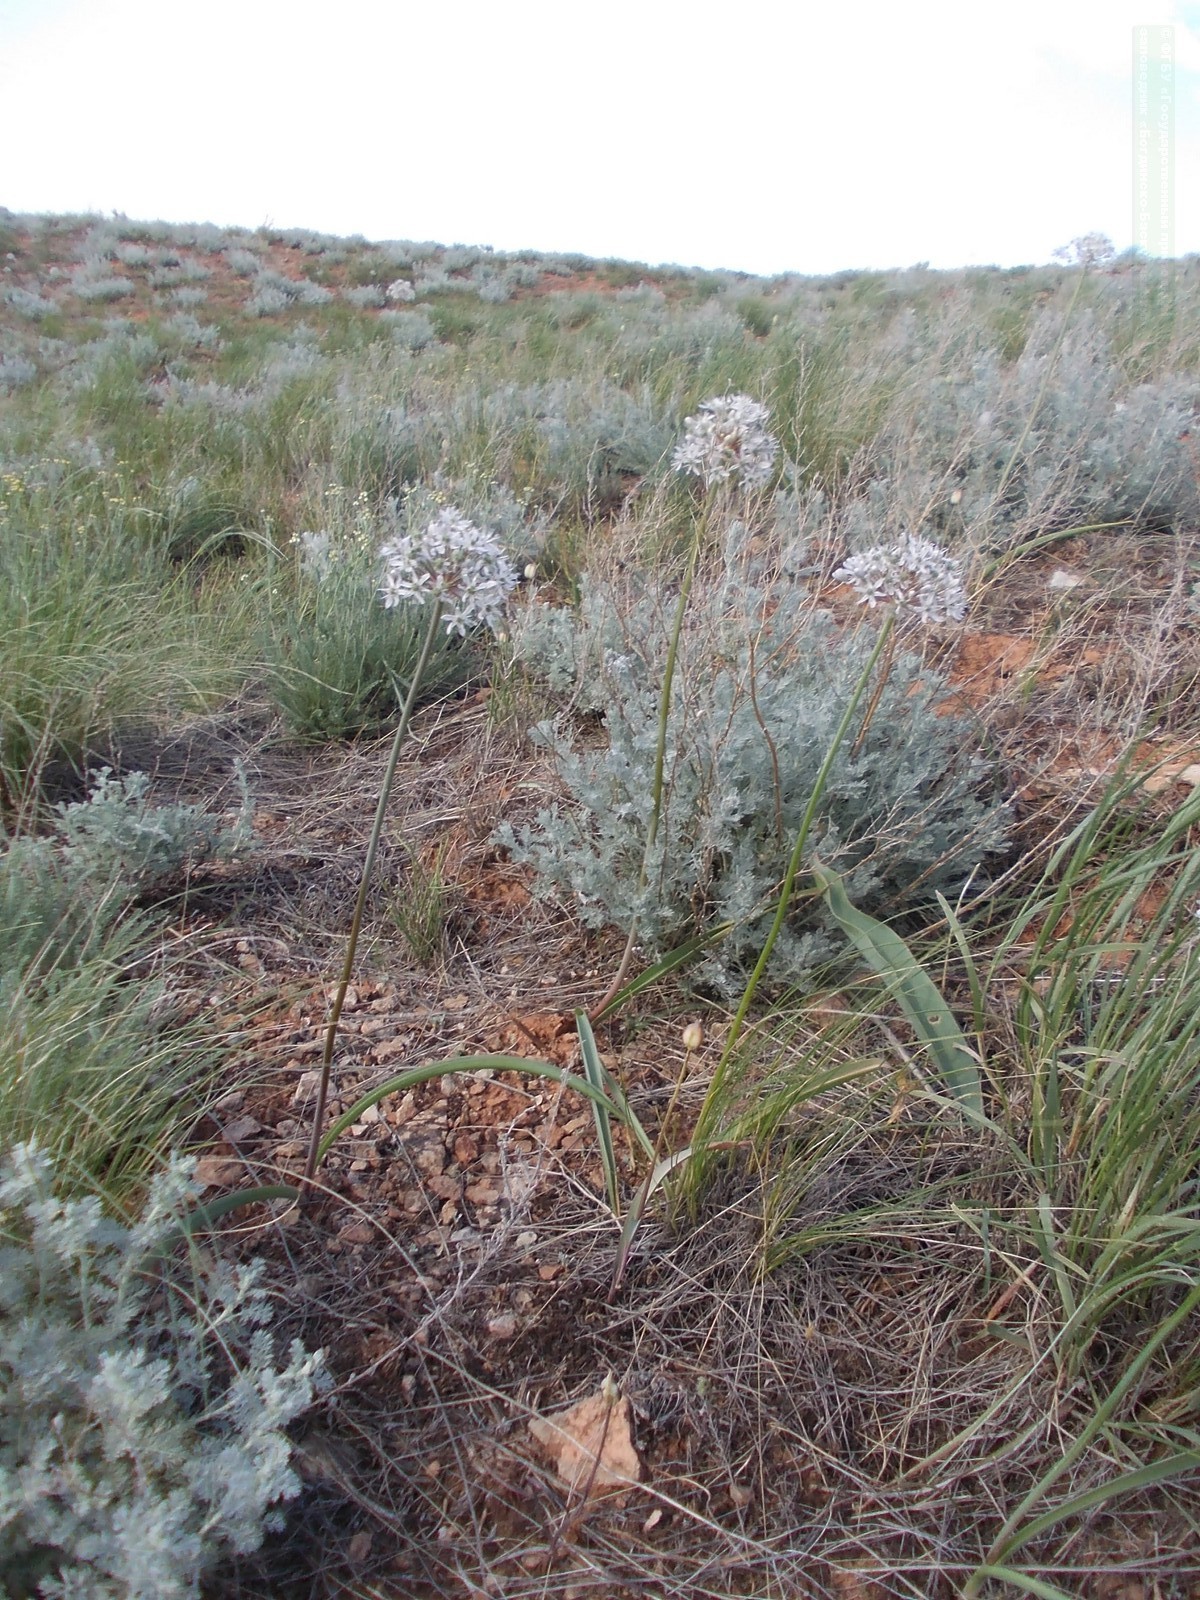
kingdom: Plantae
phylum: Tracheophyta
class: Liliopsida
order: Asparagales
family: Amaryllidaceae
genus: Allium
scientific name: Allium tulipifolium
